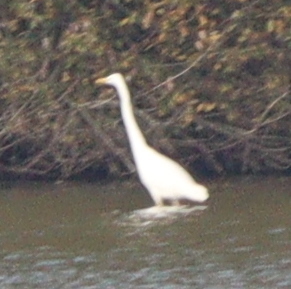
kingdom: Animalia
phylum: Chordata
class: Aves
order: Pelecaniformes
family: Ardeidae
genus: Ardea
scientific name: Ardea alba
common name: Great egret
